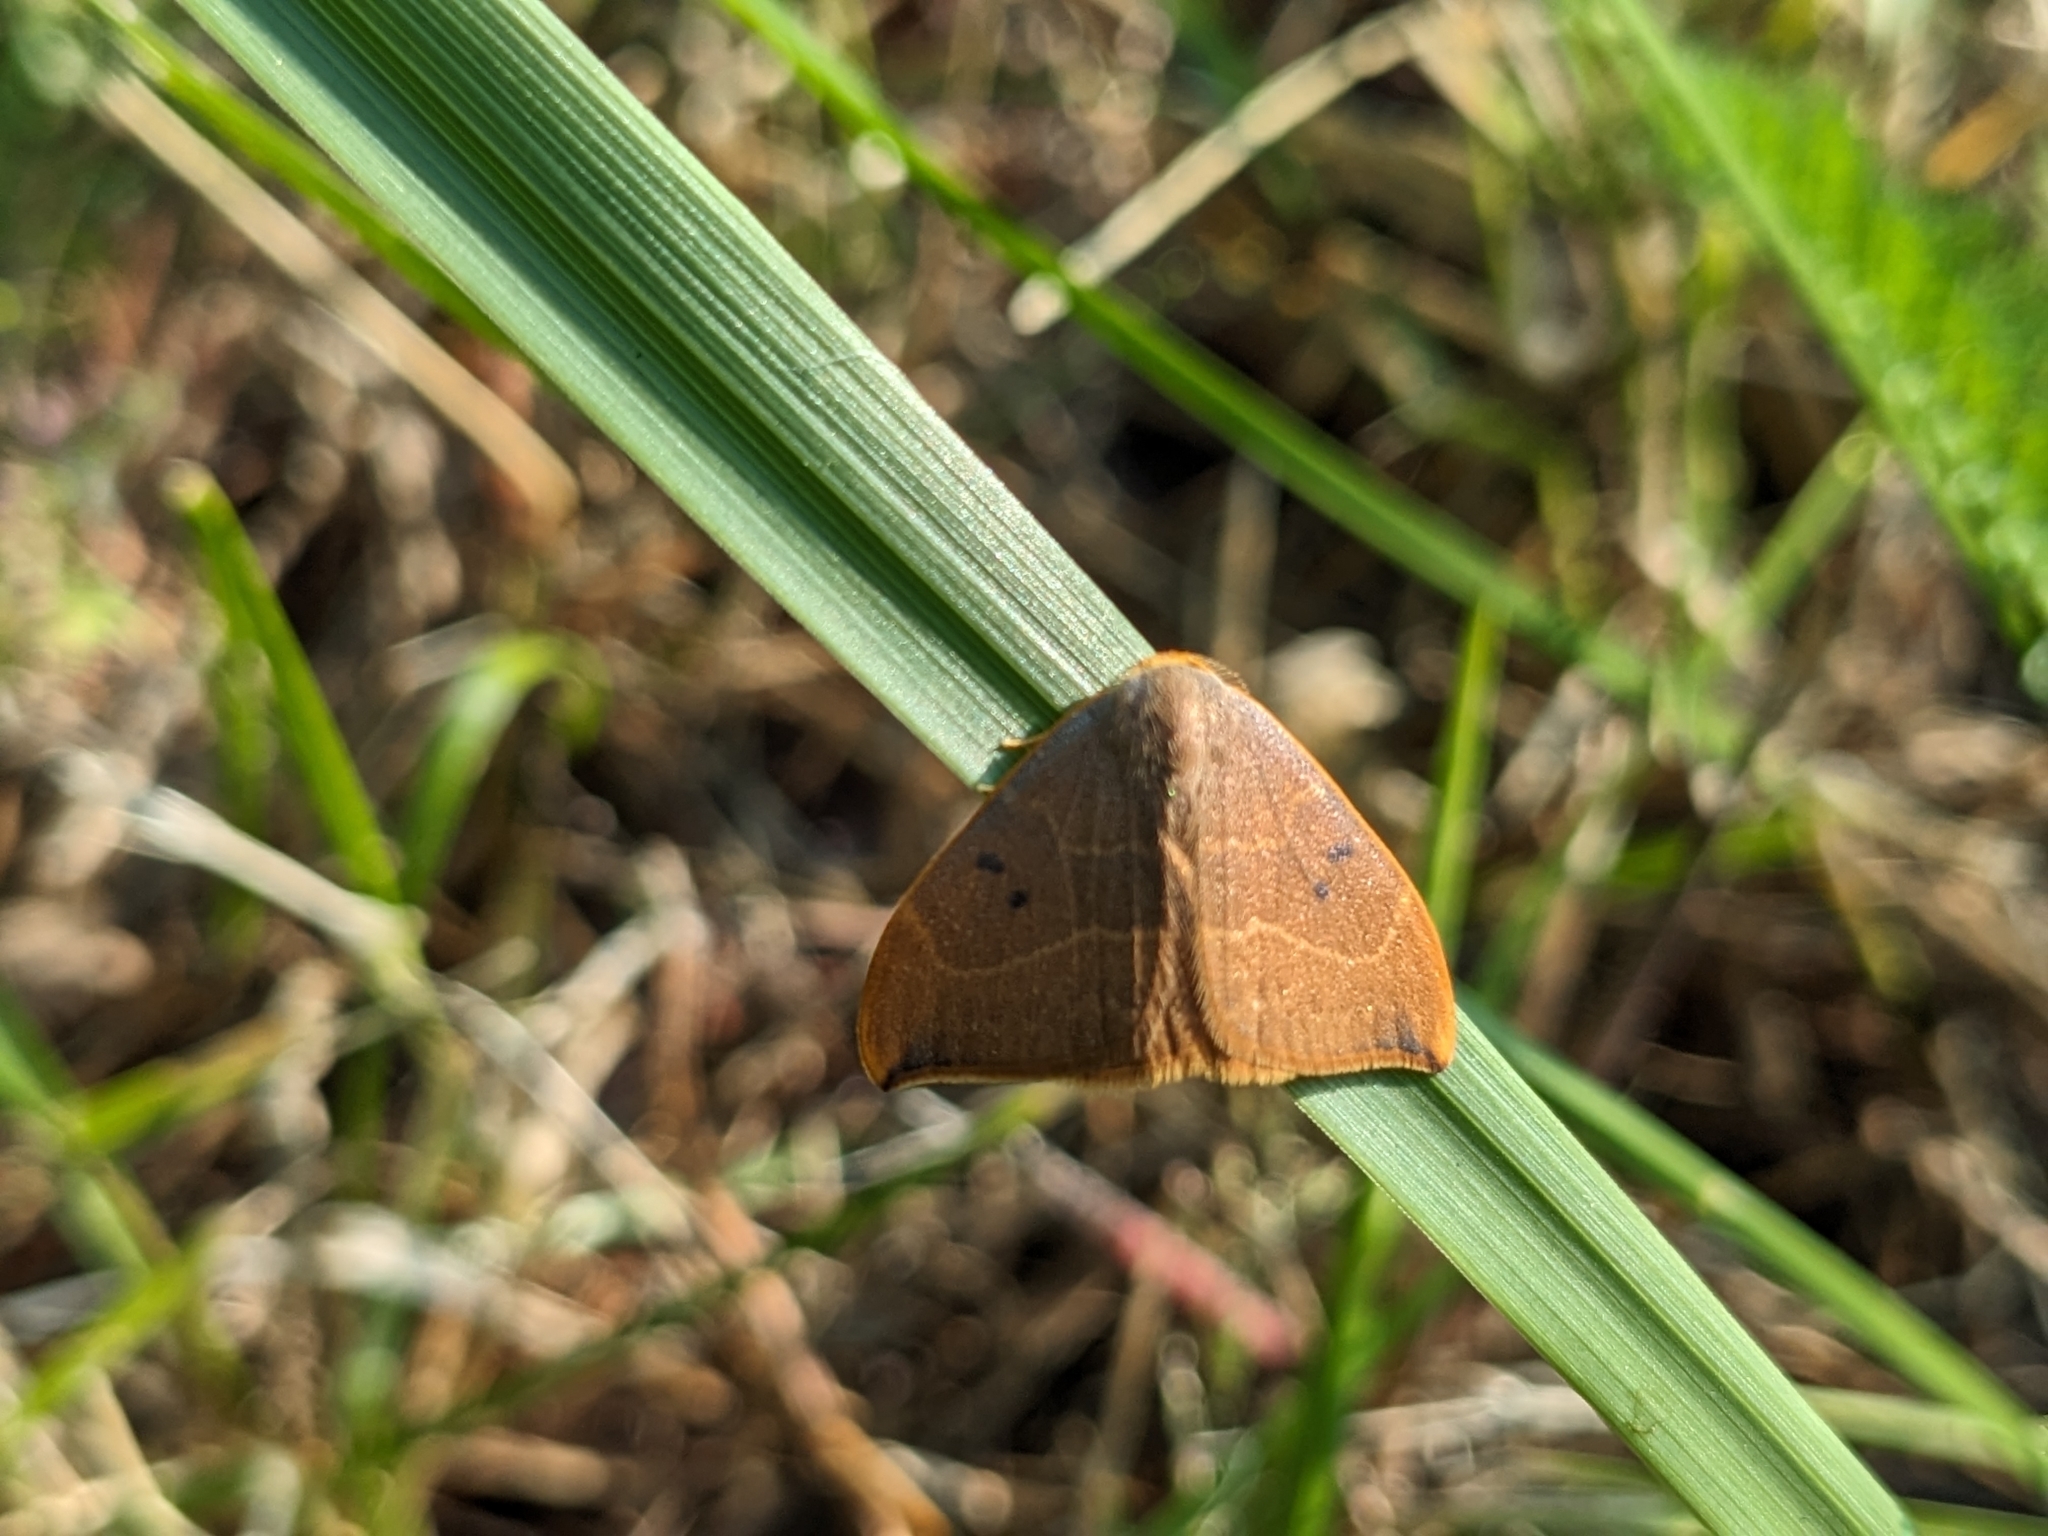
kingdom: Animalia
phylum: Arthropoda
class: Insecta
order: Lepidoptera
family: Drepanidae
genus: Watsonalla
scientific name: Watsonalla binaria
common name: Oak hook-tip
